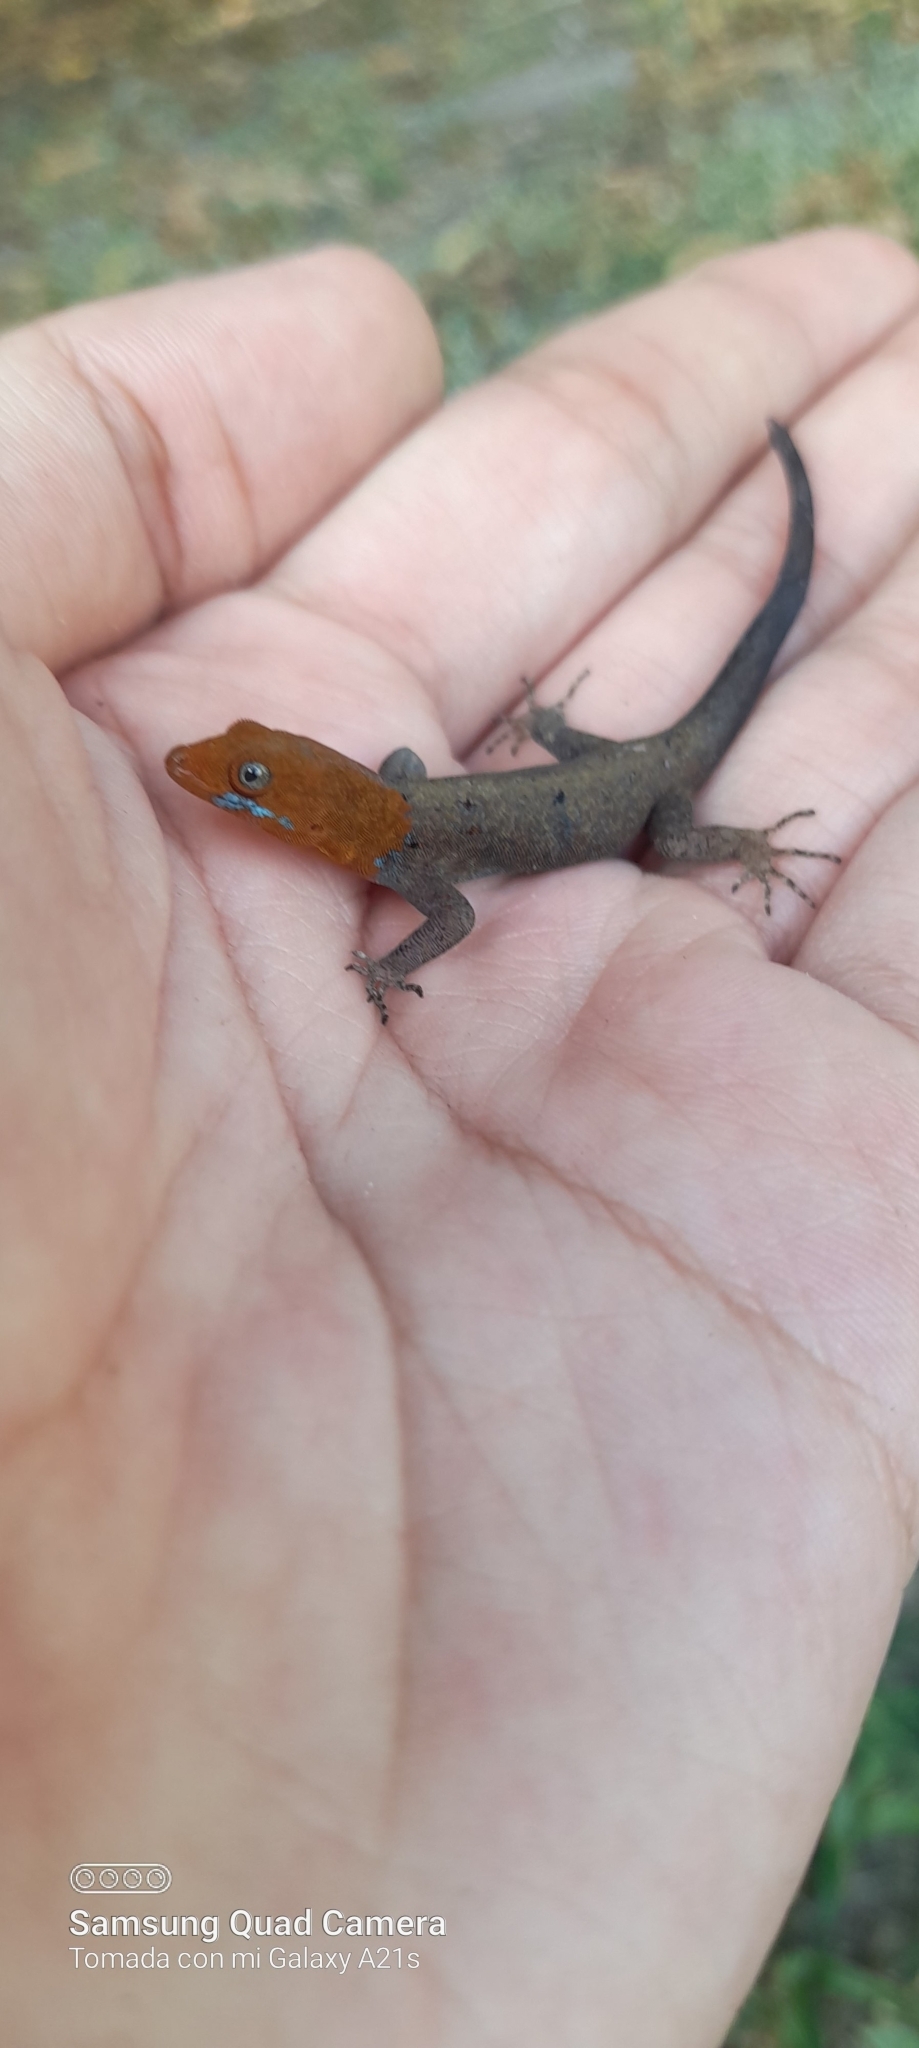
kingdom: Animalia
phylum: Chordata
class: Squamata
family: Sphaerodactylidae
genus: Gonatodes
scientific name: Gonatodes albogularis
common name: Yellow-headed gecko
